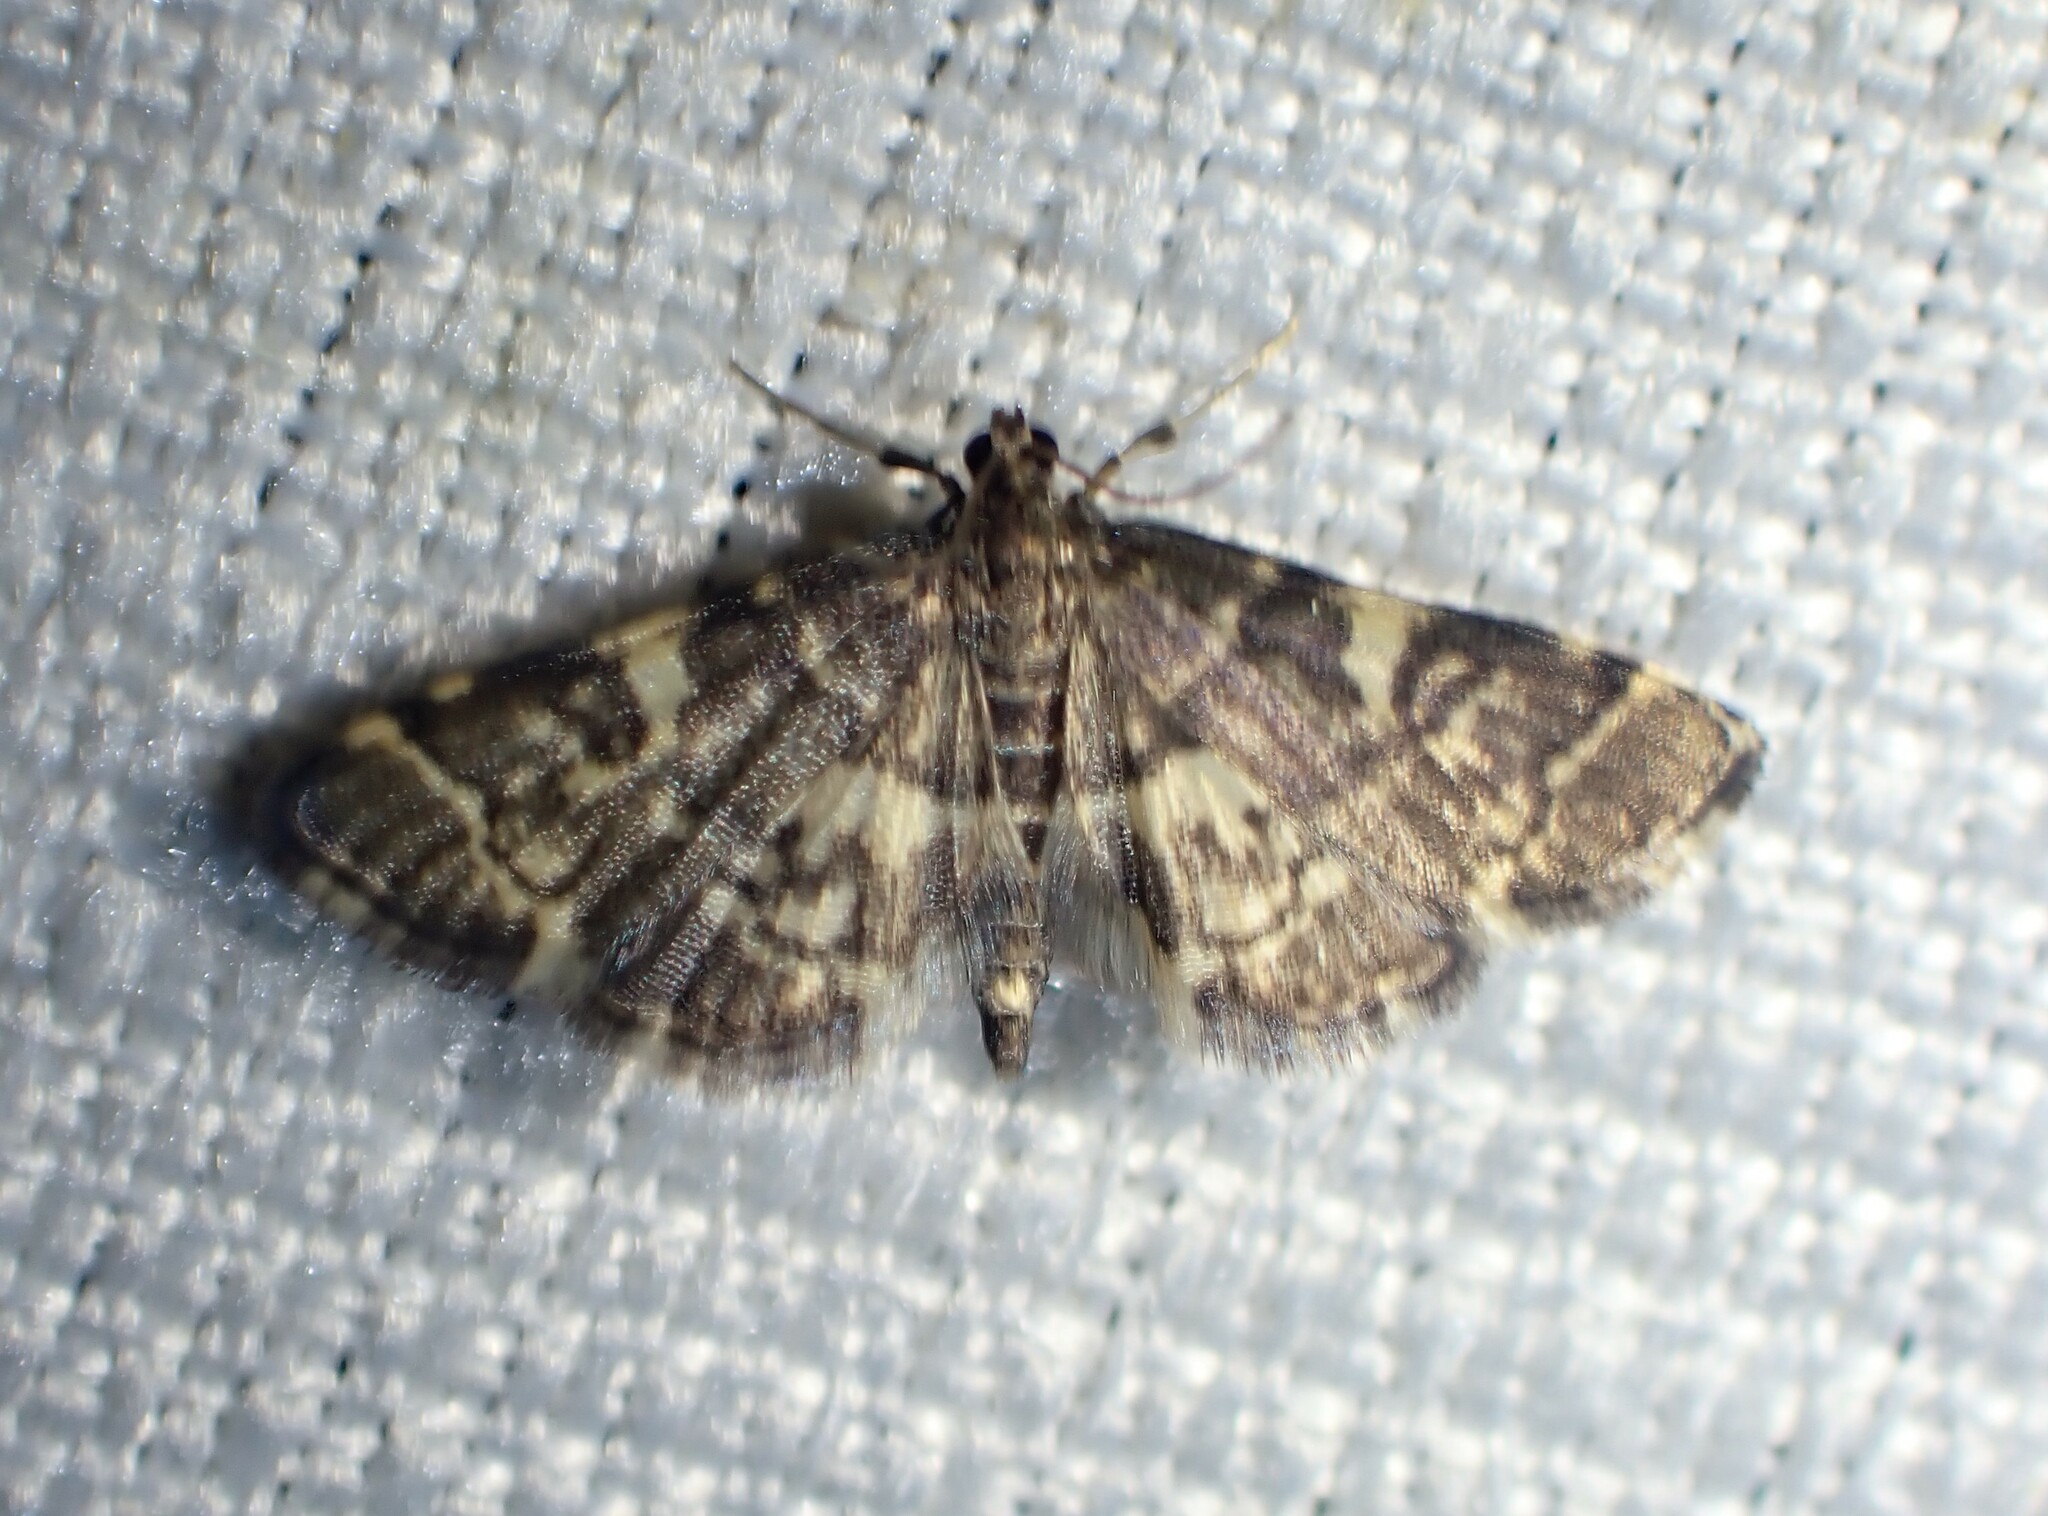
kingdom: Animalia
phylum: Arthropoda
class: Insecta
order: Lepidoptera
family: Crambidae
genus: Anageshna
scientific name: Anageshna primordialis
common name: Yellow-spotted webworm moth
